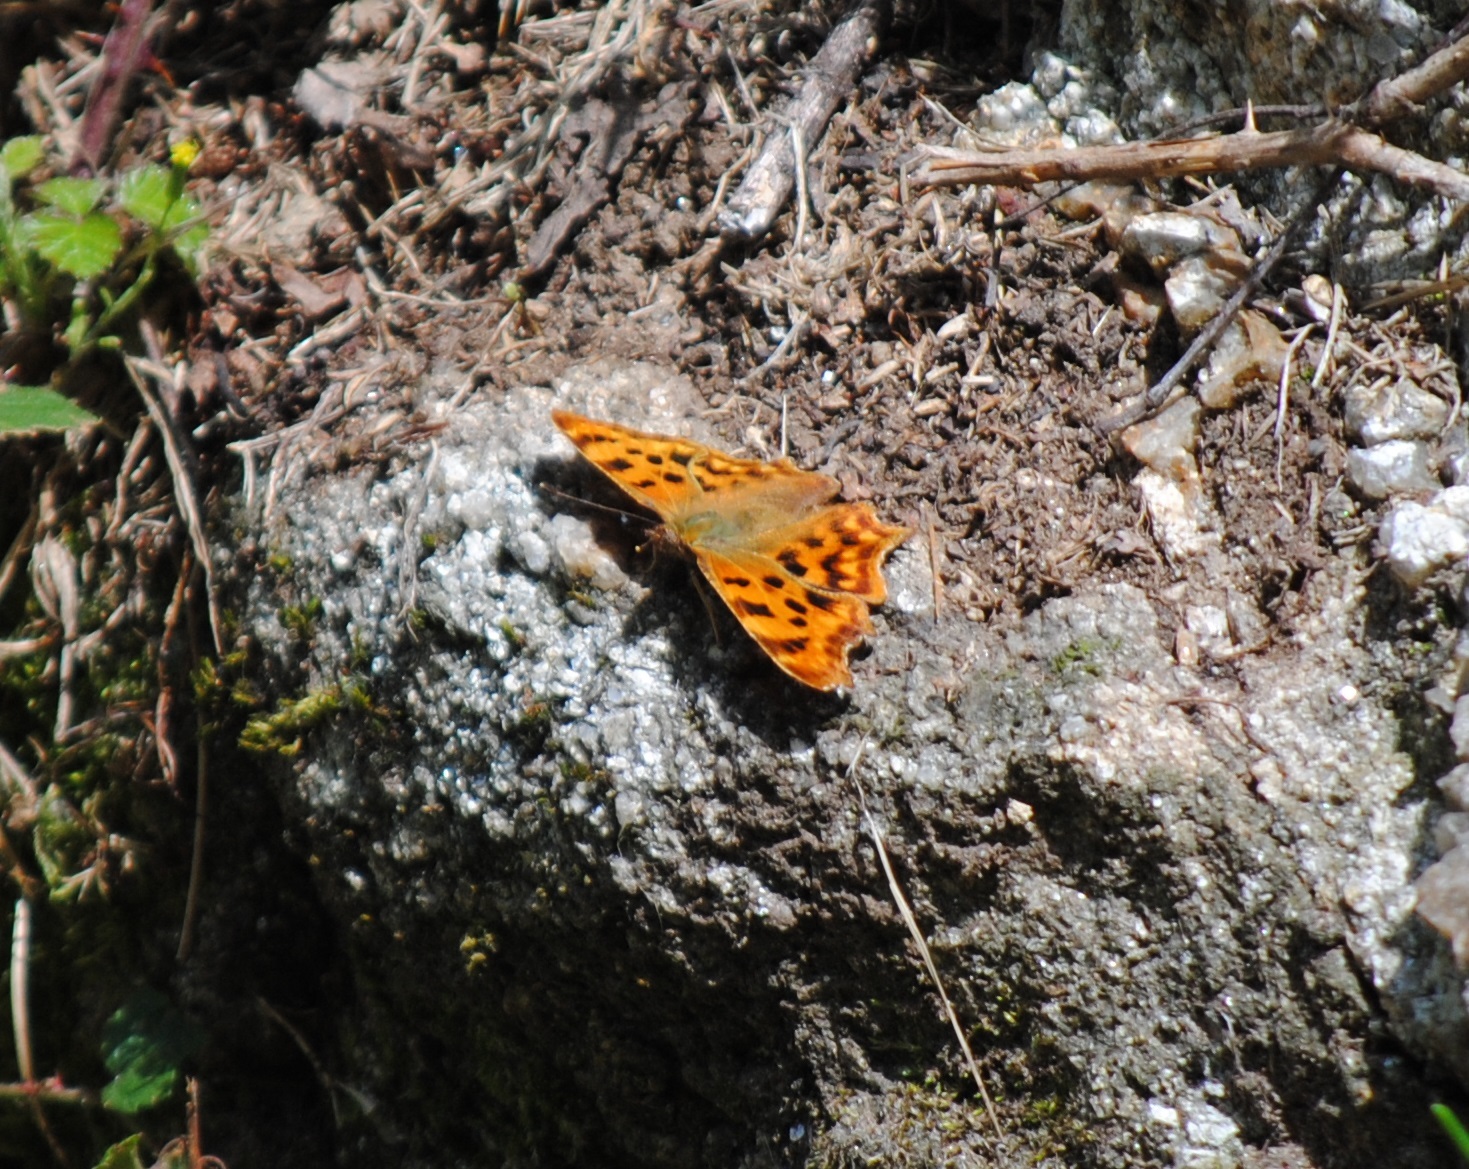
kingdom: Animalia
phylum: Arthropoda
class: Insecta
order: Lepidoptera
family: Nymphalidae
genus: Polygonia
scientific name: Polygonia c-album
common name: Comma
